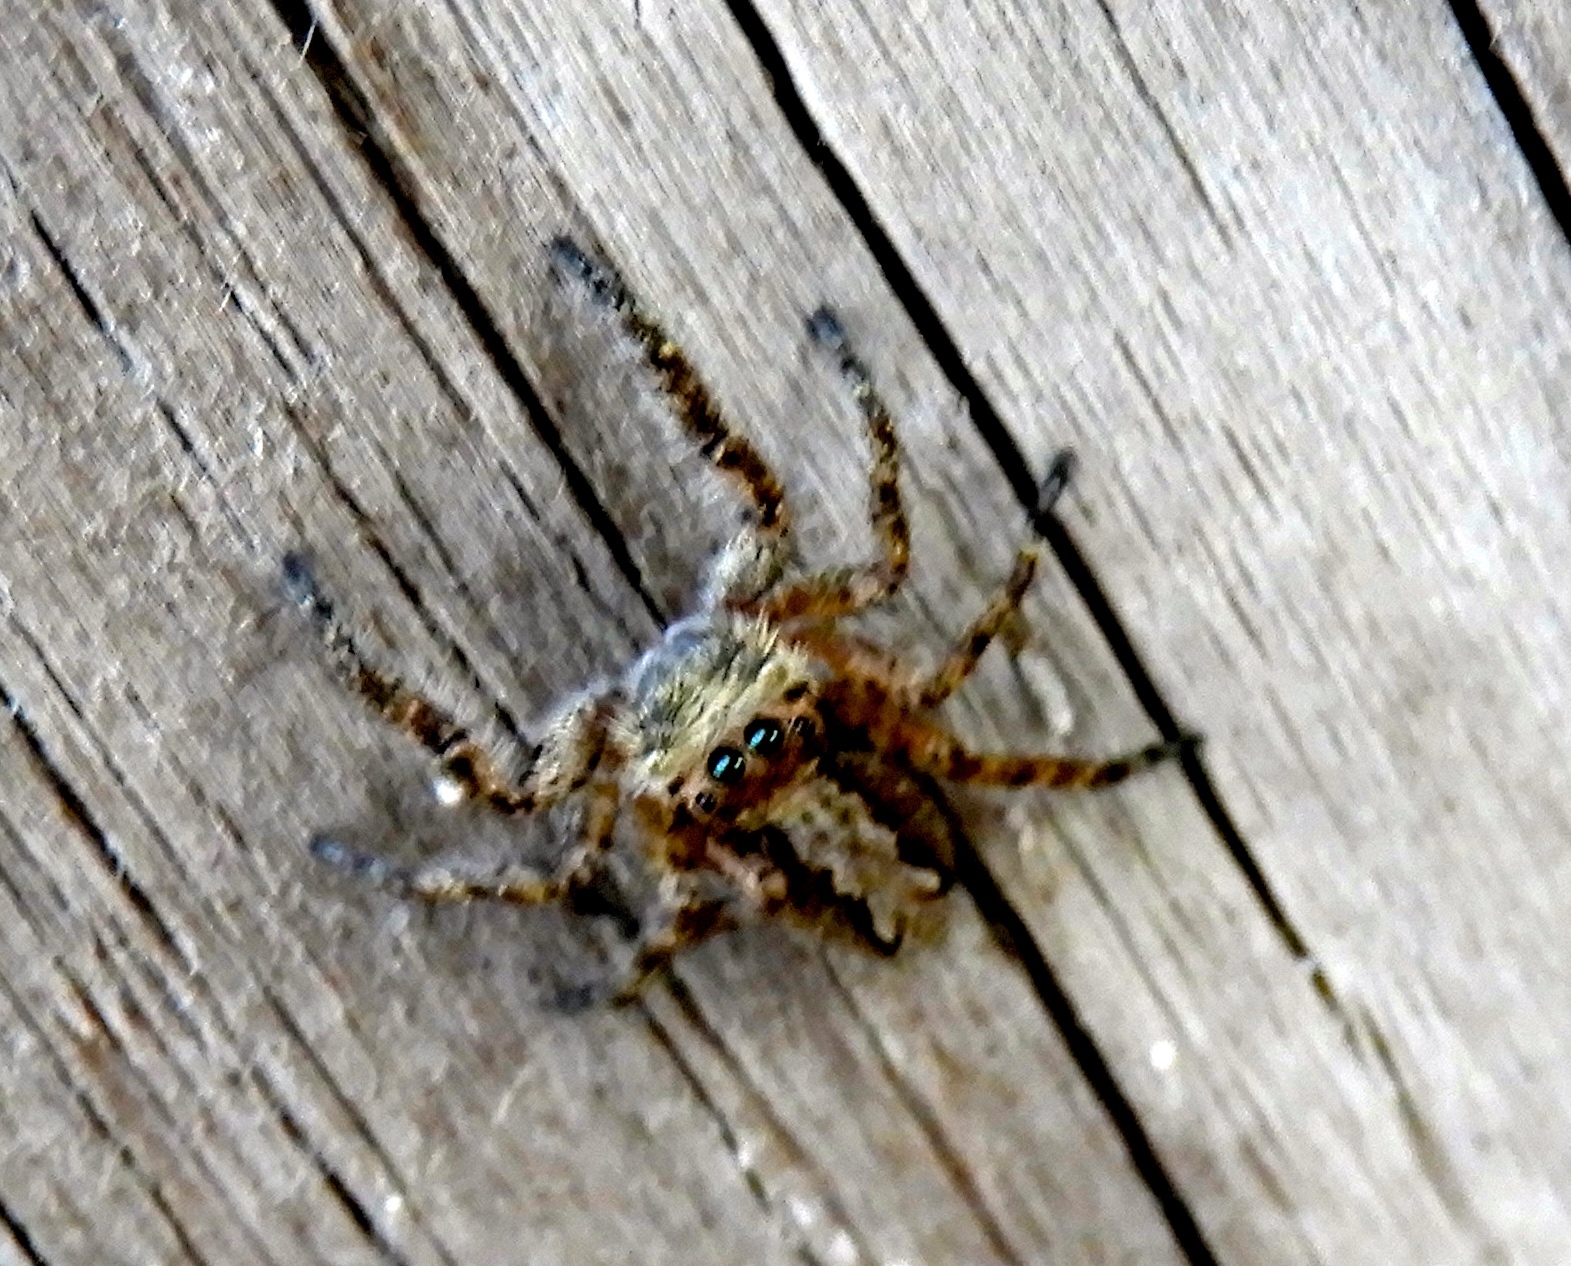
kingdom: Animalia
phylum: Arthropoda
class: Arachnida
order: Araneae
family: Salticidae
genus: Balmaceda
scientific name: Balmaceda
